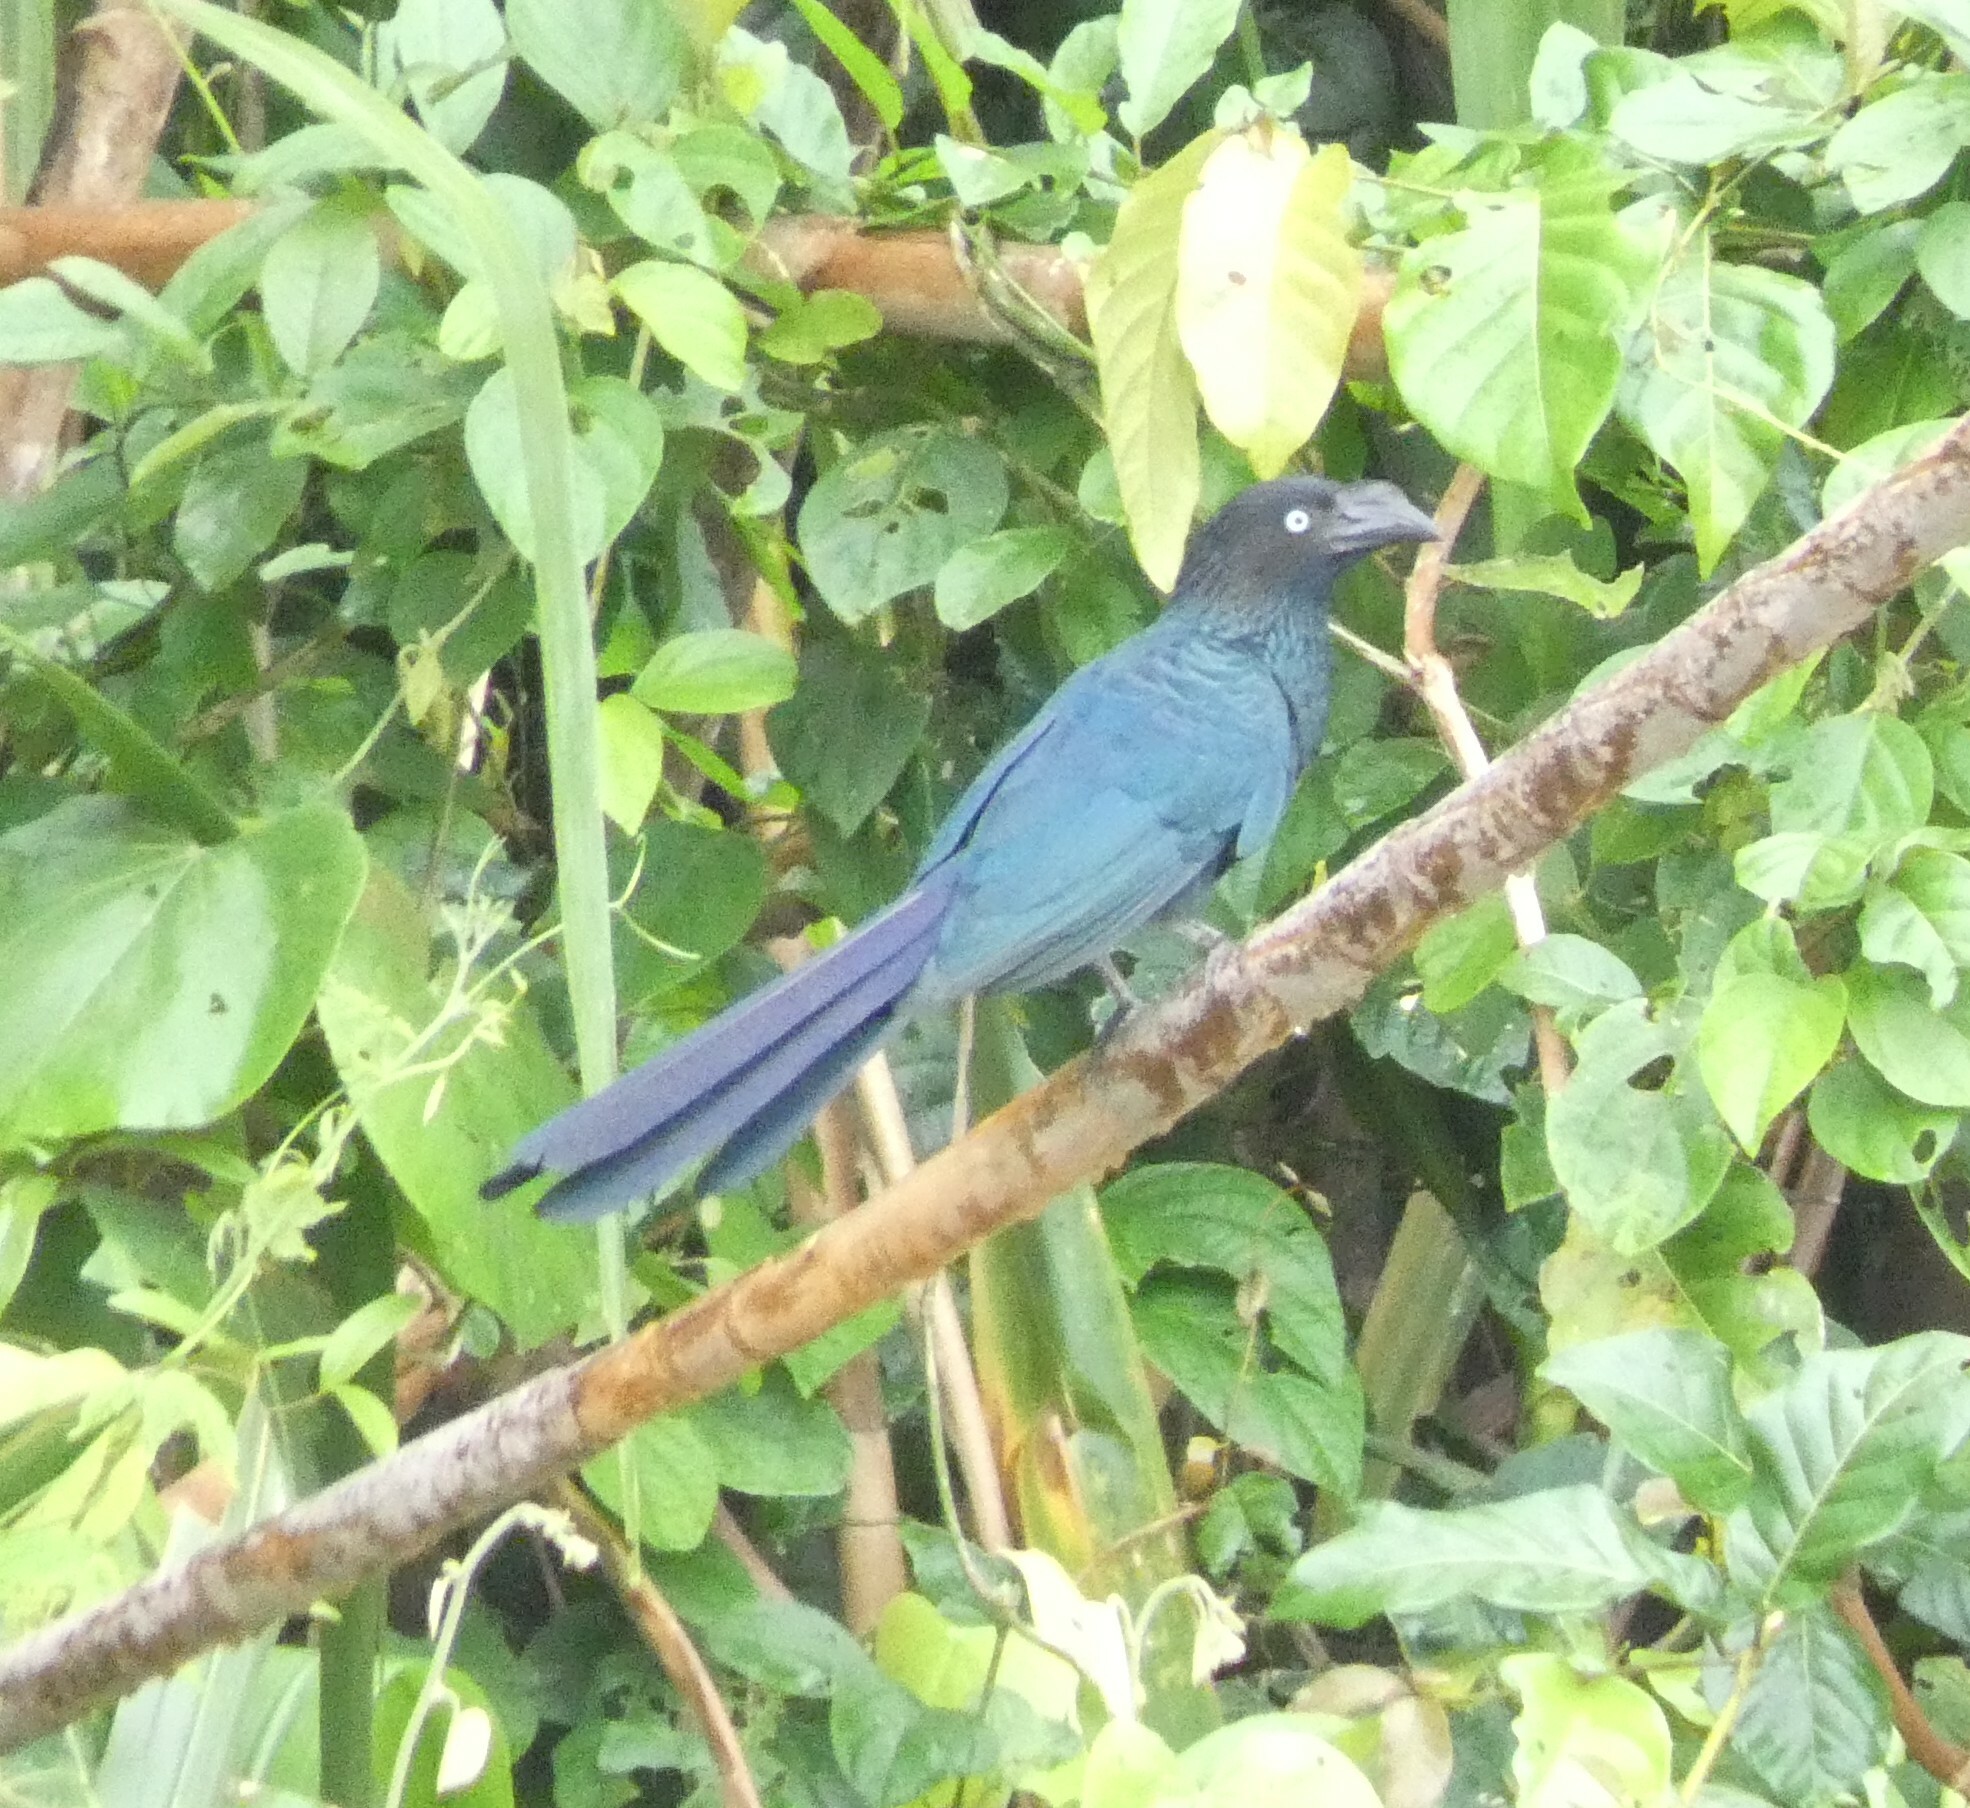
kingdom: Animalia
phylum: Chordata
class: Aves
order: Cuculiformes
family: Cuculidae
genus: Crotophaga
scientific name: Crotophaga major
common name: Greater ani
